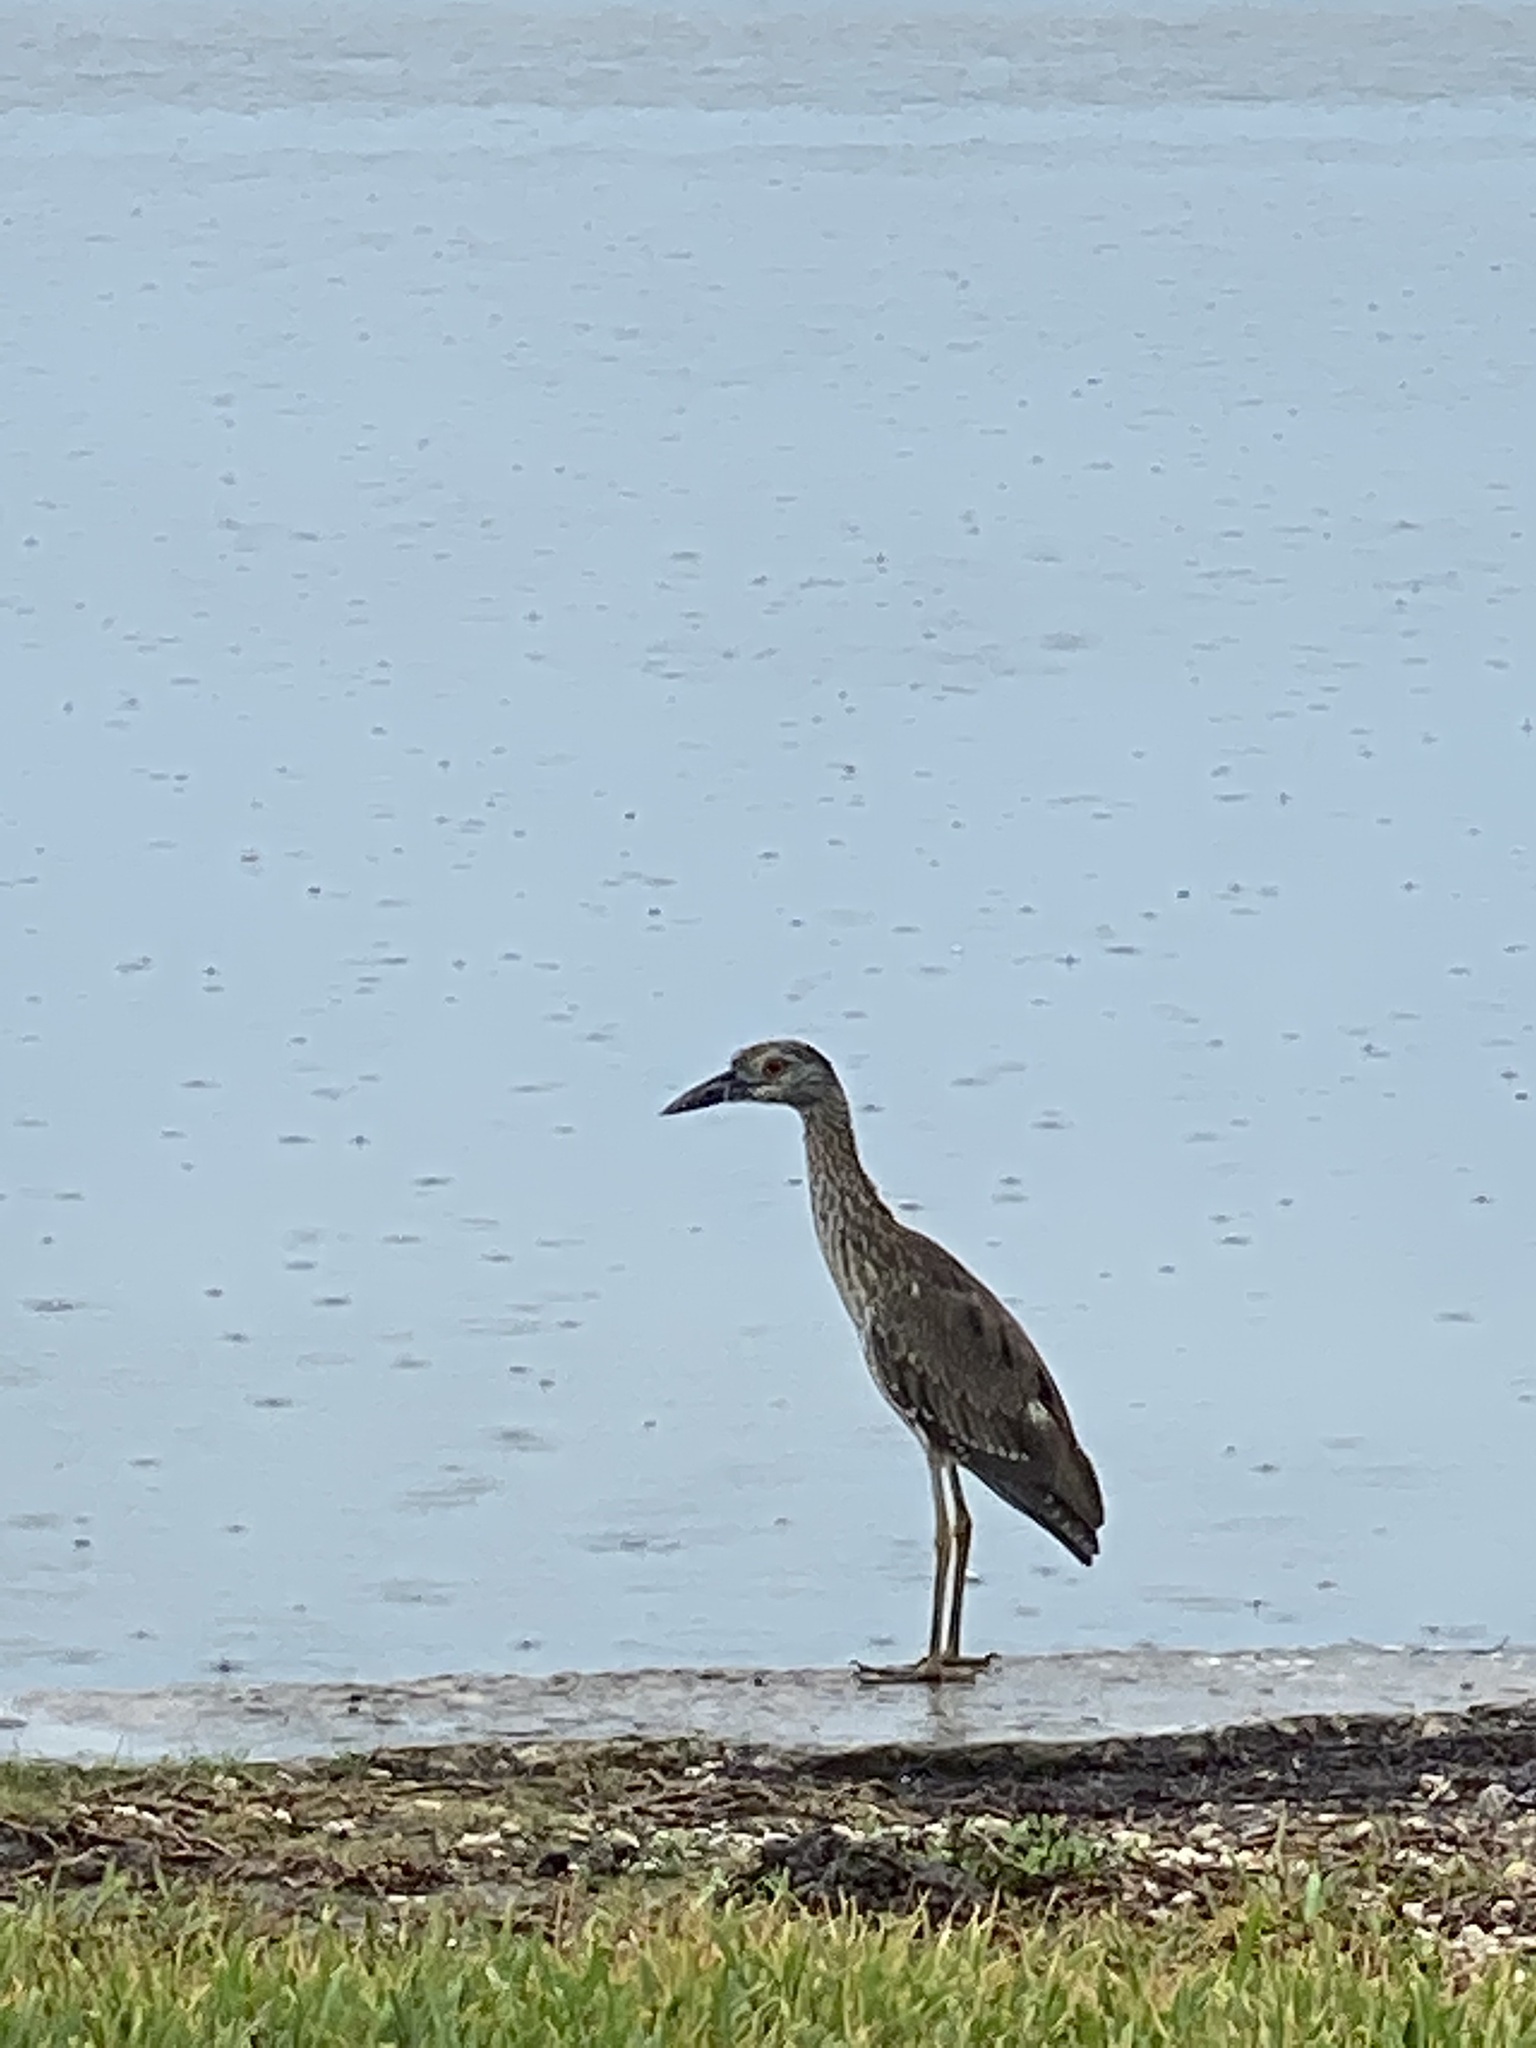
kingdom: Animalia
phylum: Chordata
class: Aves
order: Pelecaniformes
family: Ardeidae
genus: Nyctanassa
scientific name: Nyctanassa violacea
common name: Yellow-crowned night heron
